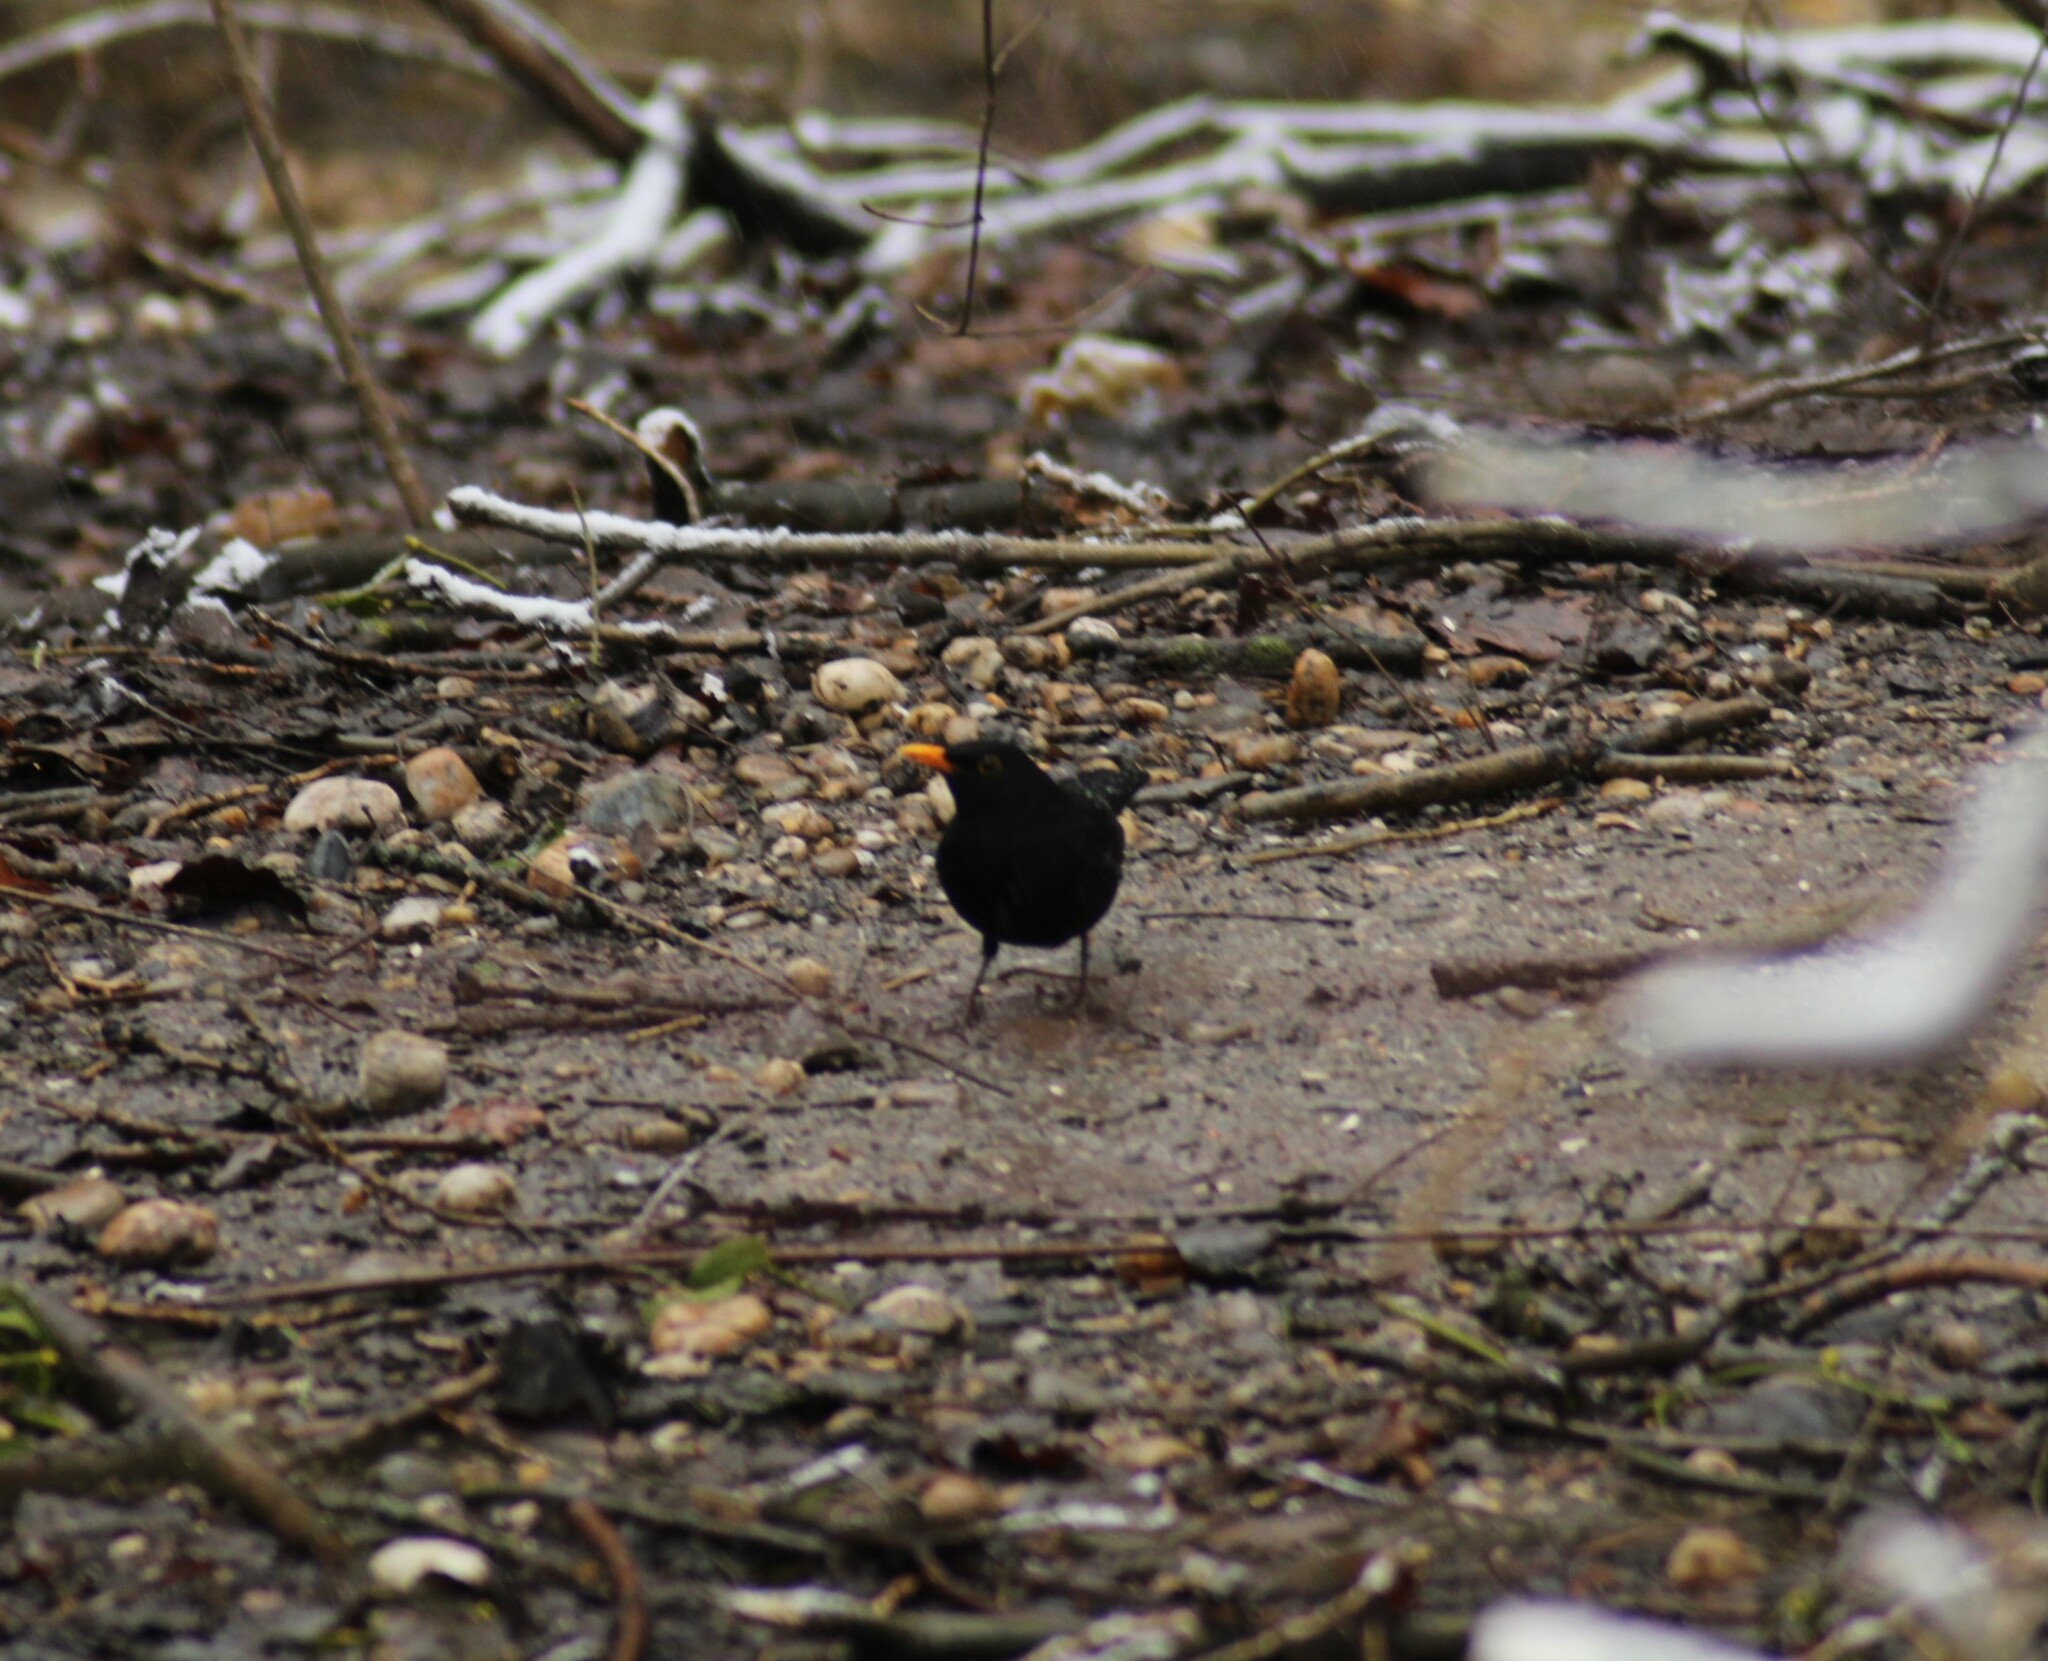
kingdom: Animalia
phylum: Chordata
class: Aves
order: Passeriformes
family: Turdidae
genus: Turdus
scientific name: Turdus merula
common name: Common blackbird
